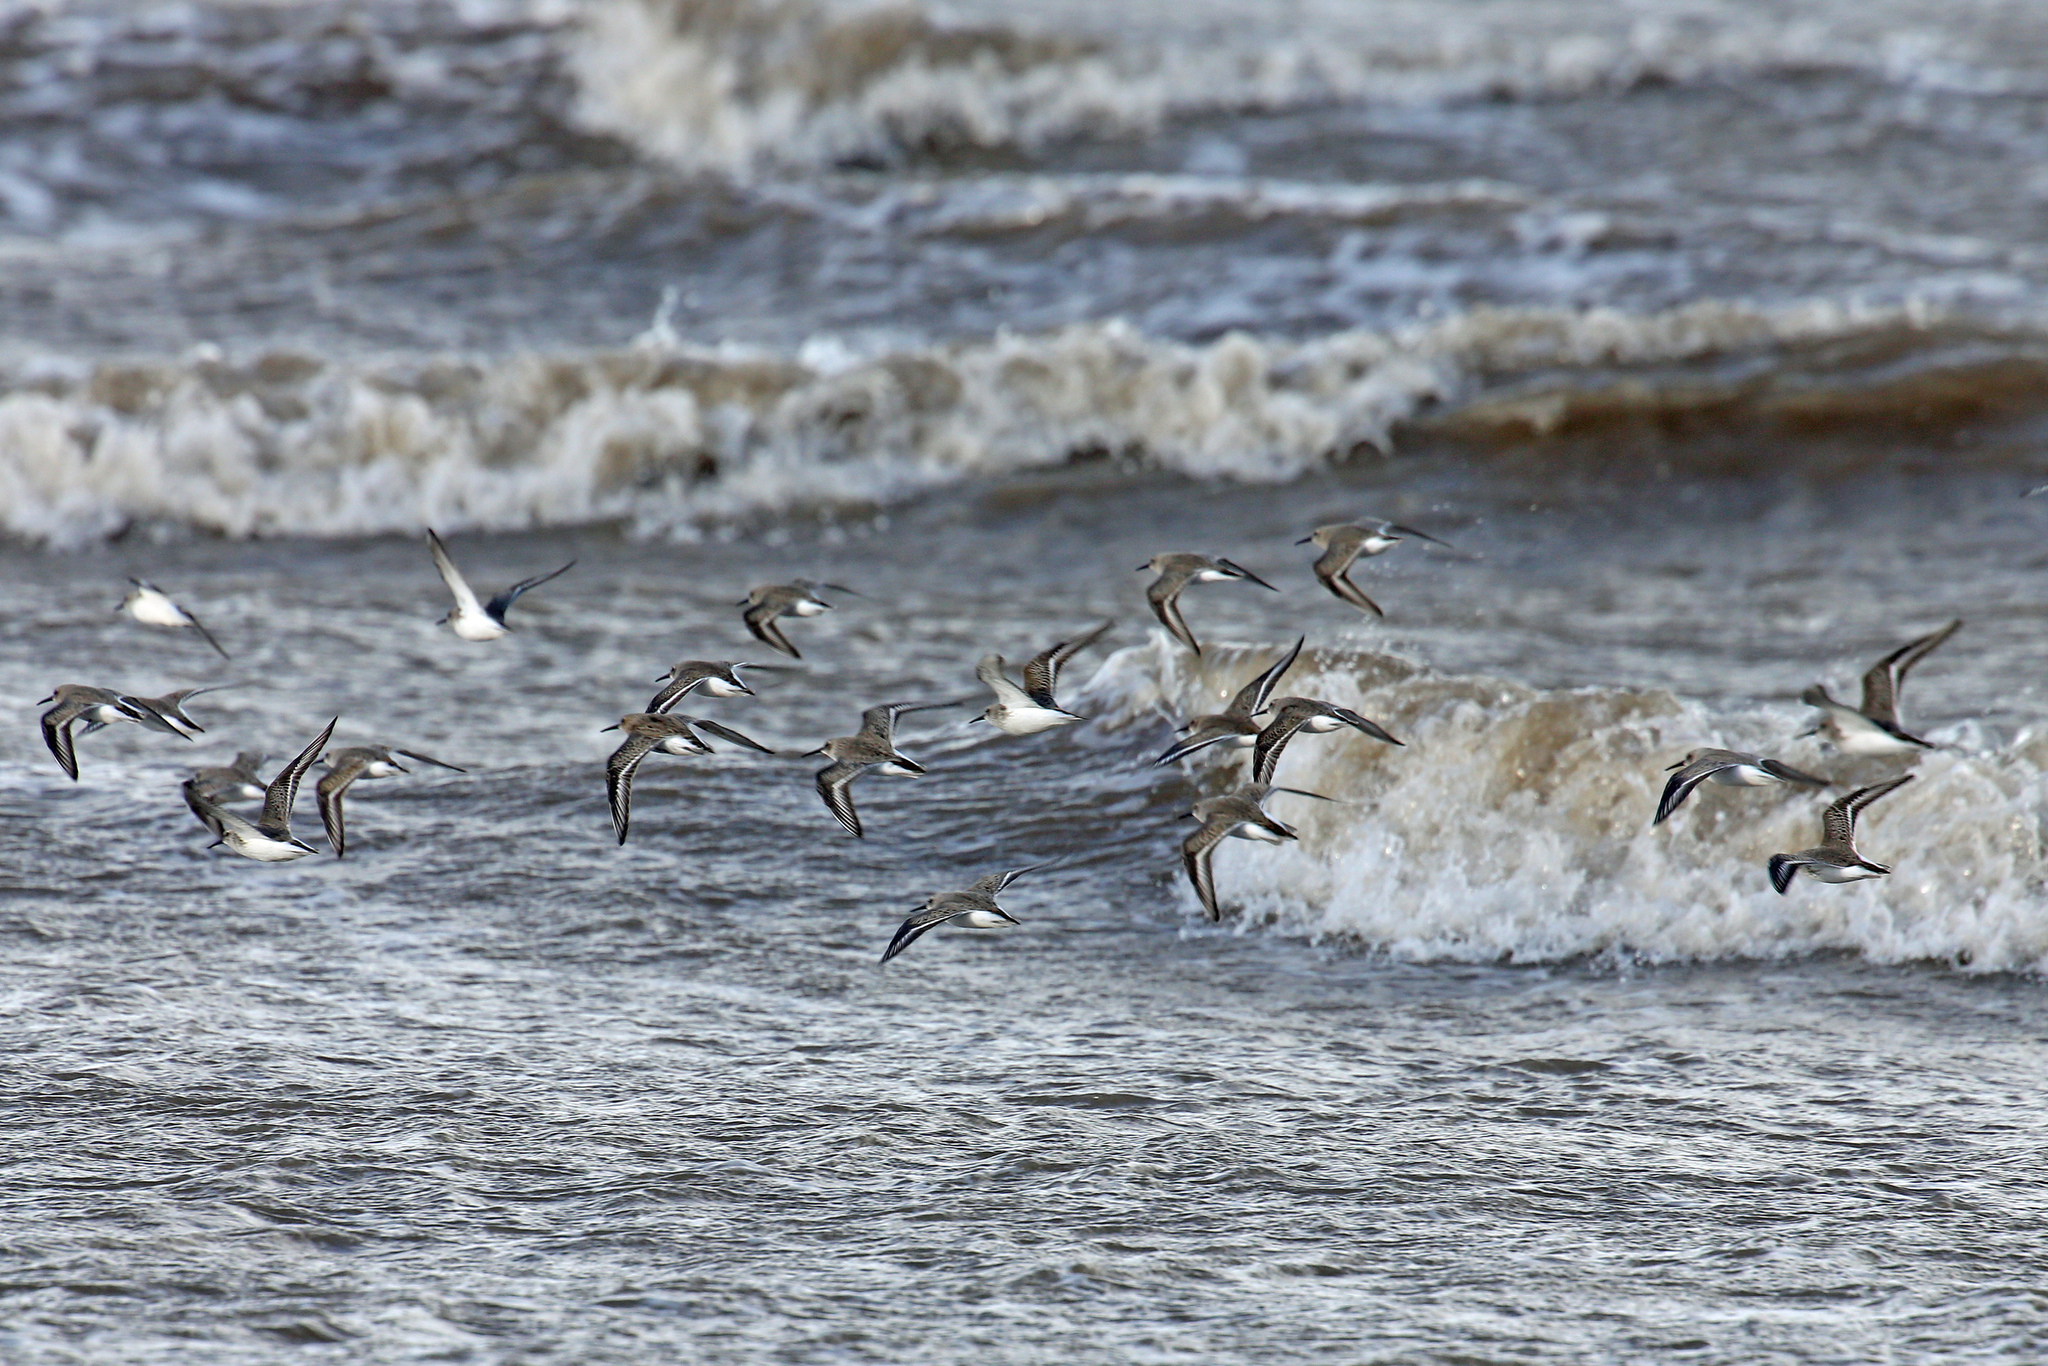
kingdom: Animalia
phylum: Chordata
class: Aves
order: Charadriiformes
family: Scolopacidae
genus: Calidris
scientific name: Calidris alpina
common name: Dunlin
